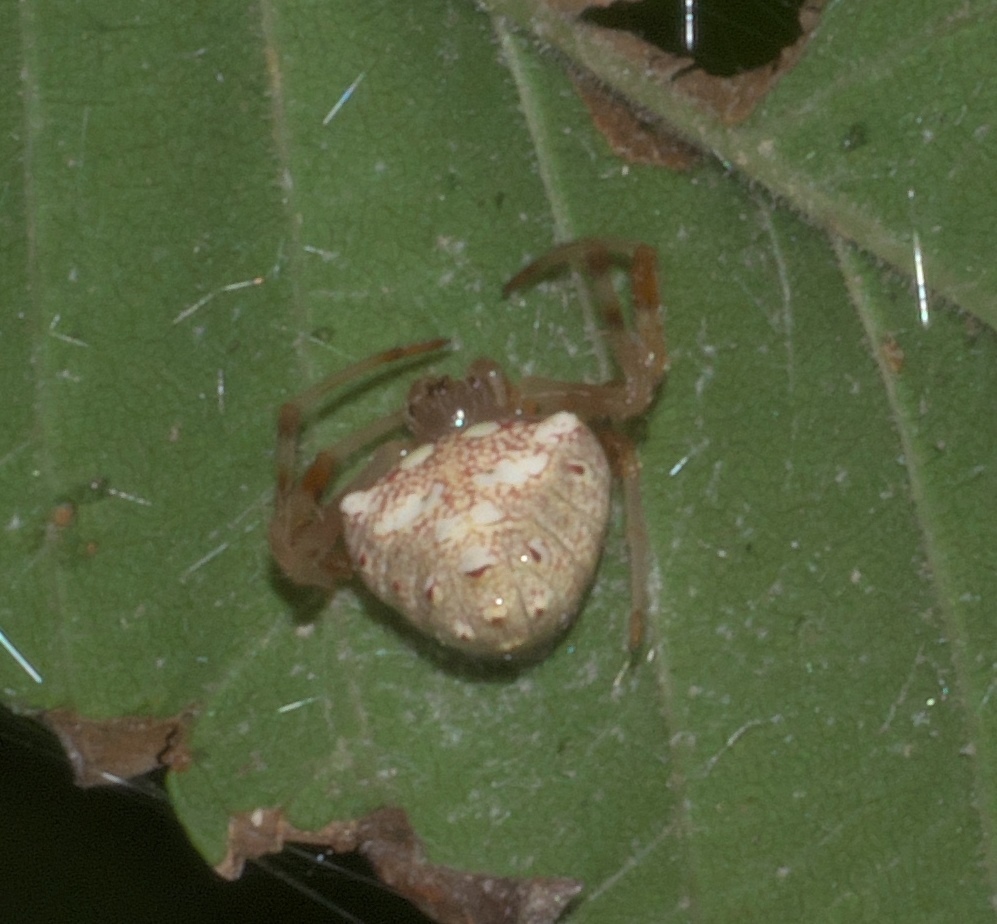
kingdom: Animalia
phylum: Arthropoda
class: Arachnida
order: Araneae
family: Araneidae
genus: Verrucosa
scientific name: Verrucosa arenata
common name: Orb weavers
